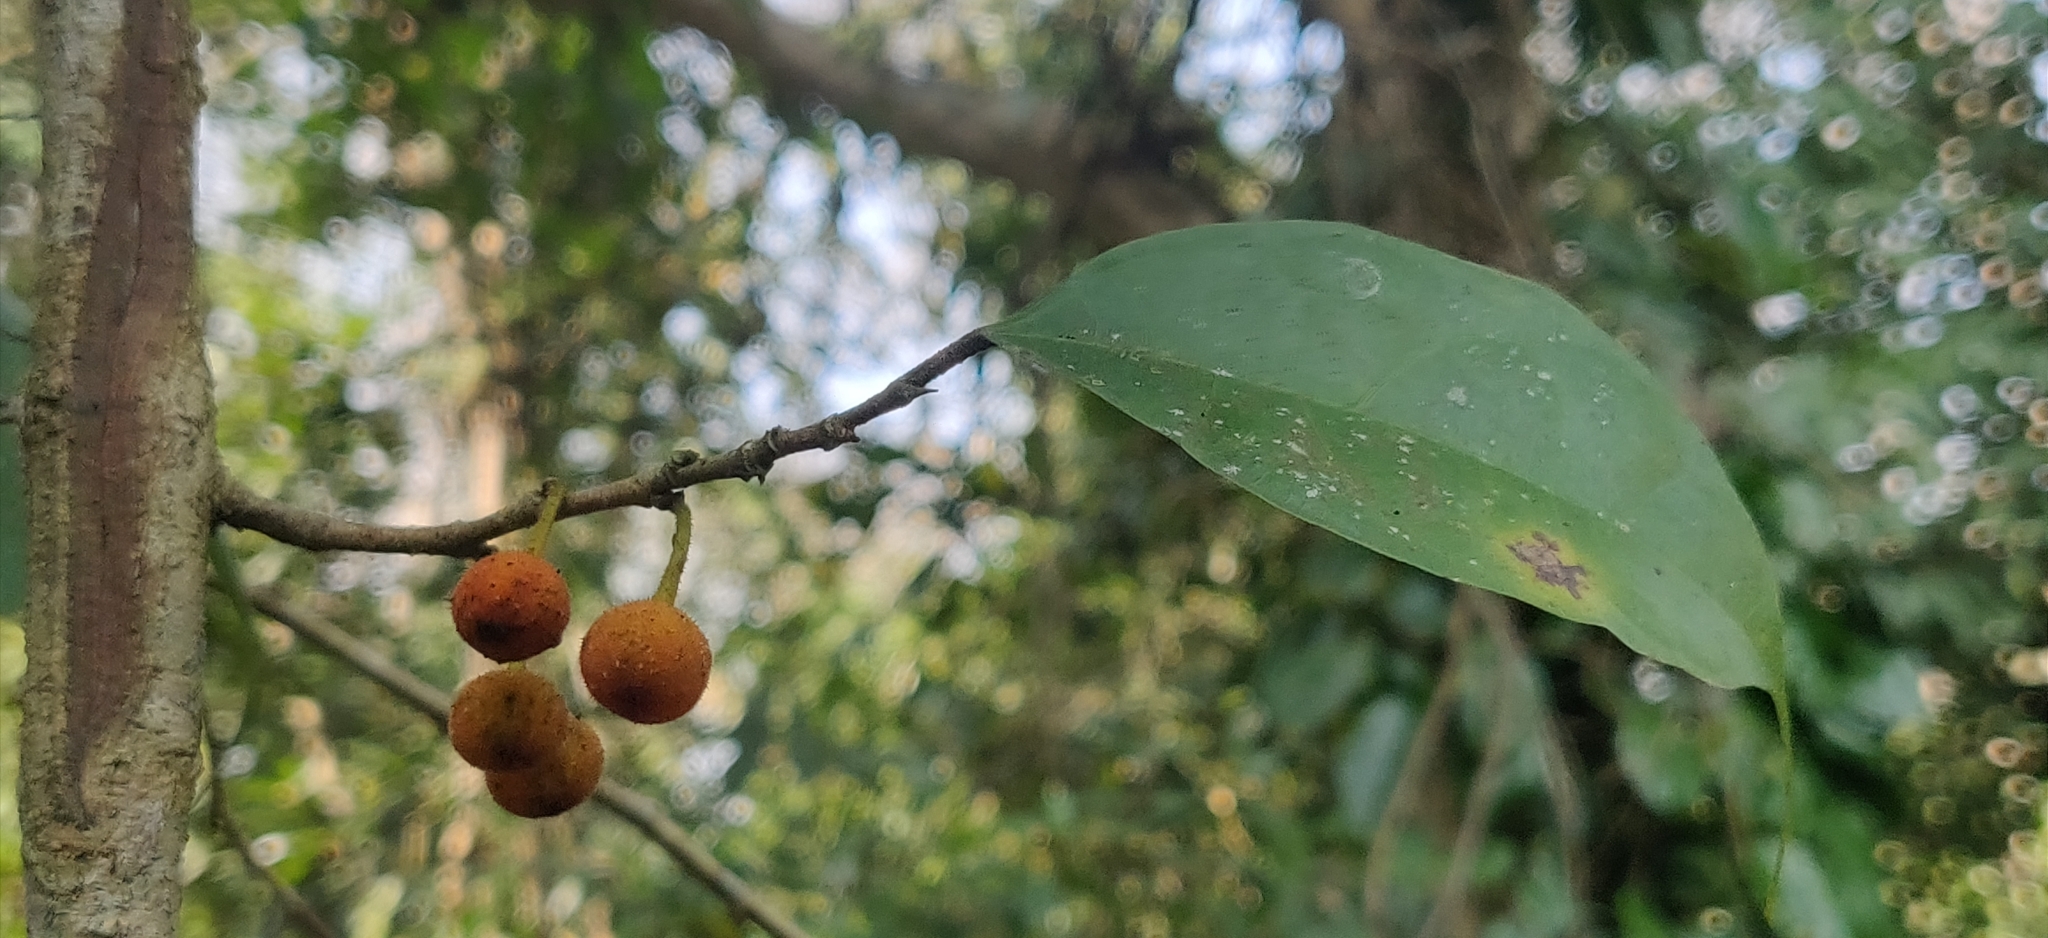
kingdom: Plantae
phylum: Tracheophyta
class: Magnoliopsida
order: Rosales
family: Moraceae
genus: Ficus
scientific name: Ficus sinuata
